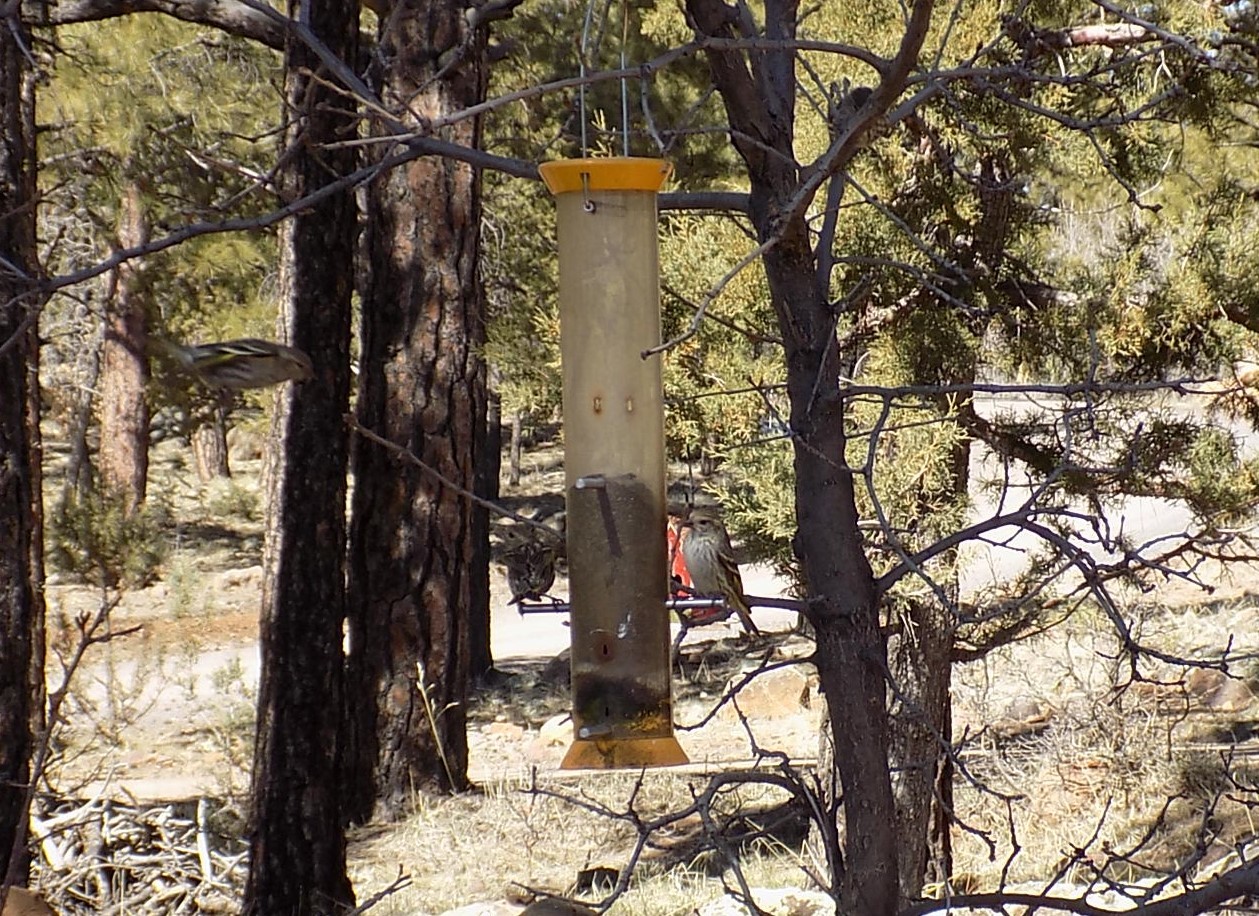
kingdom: Animalia
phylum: Chordata
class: Aves
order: Passeriformes
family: Fringillidae
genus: Spinus
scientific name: Spinus pinus
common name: Pine siskin
